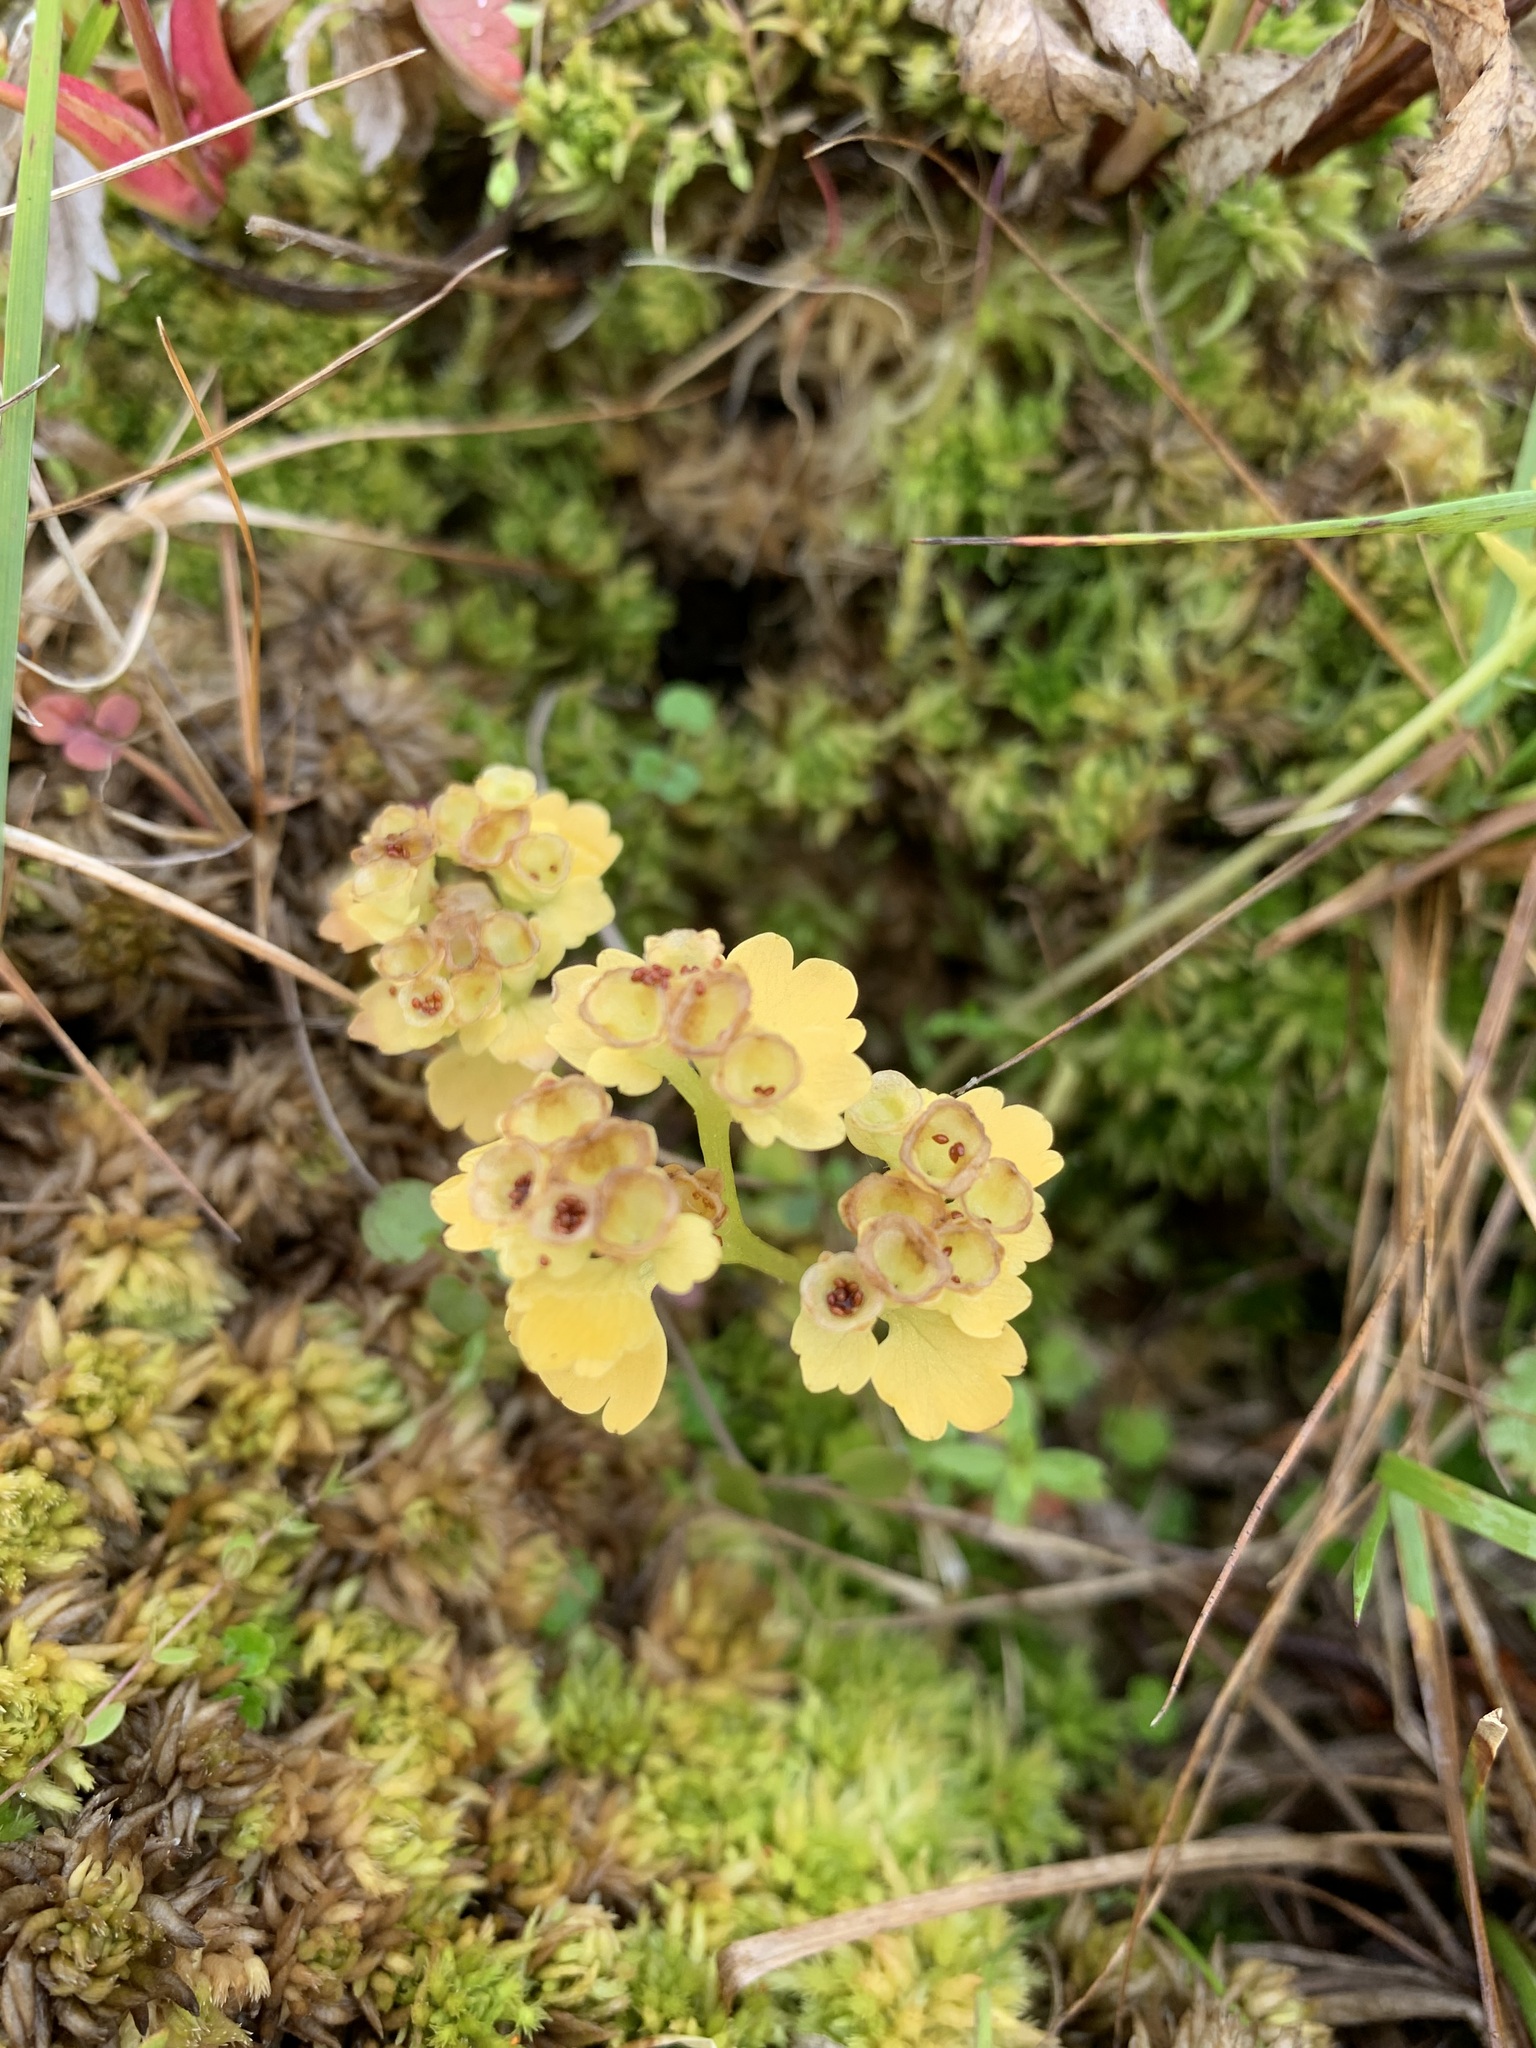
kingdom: Plantae
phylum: Tracheophyta
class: Magnoliopsida
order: Saxifragales
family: Saxifragaceae
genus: Chrysosplenium
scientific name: Chrysosplenium tetrandrum
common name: Green saxifrage
